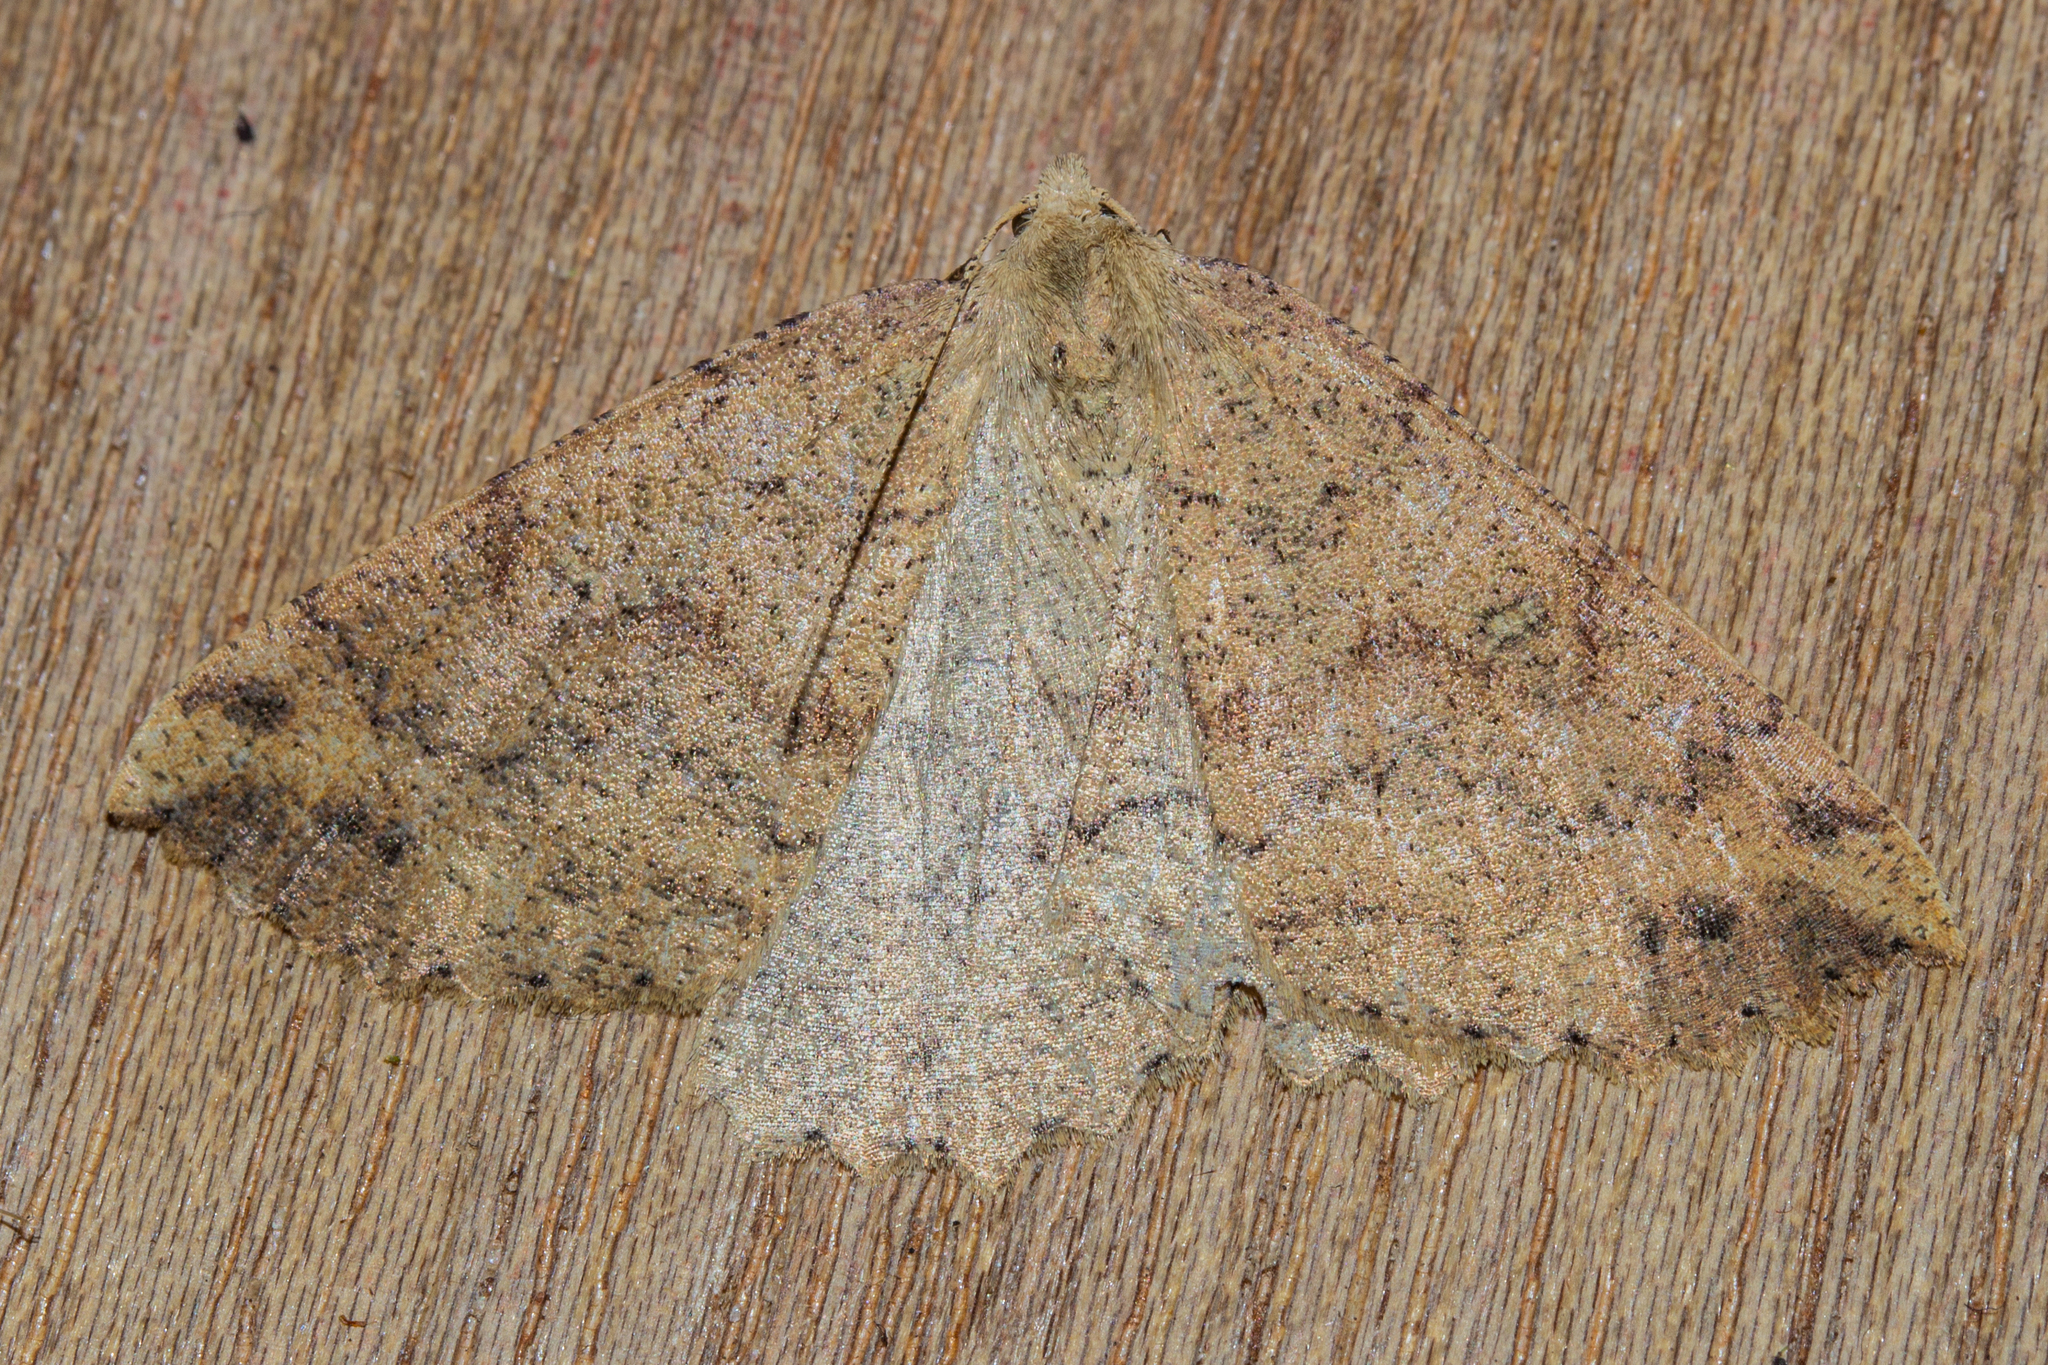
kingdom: Animalia
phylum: Arthropoda
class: Insecta
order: Lepidoptera
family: Geometridae
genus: Cleora
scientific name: Cleora scriptaria
